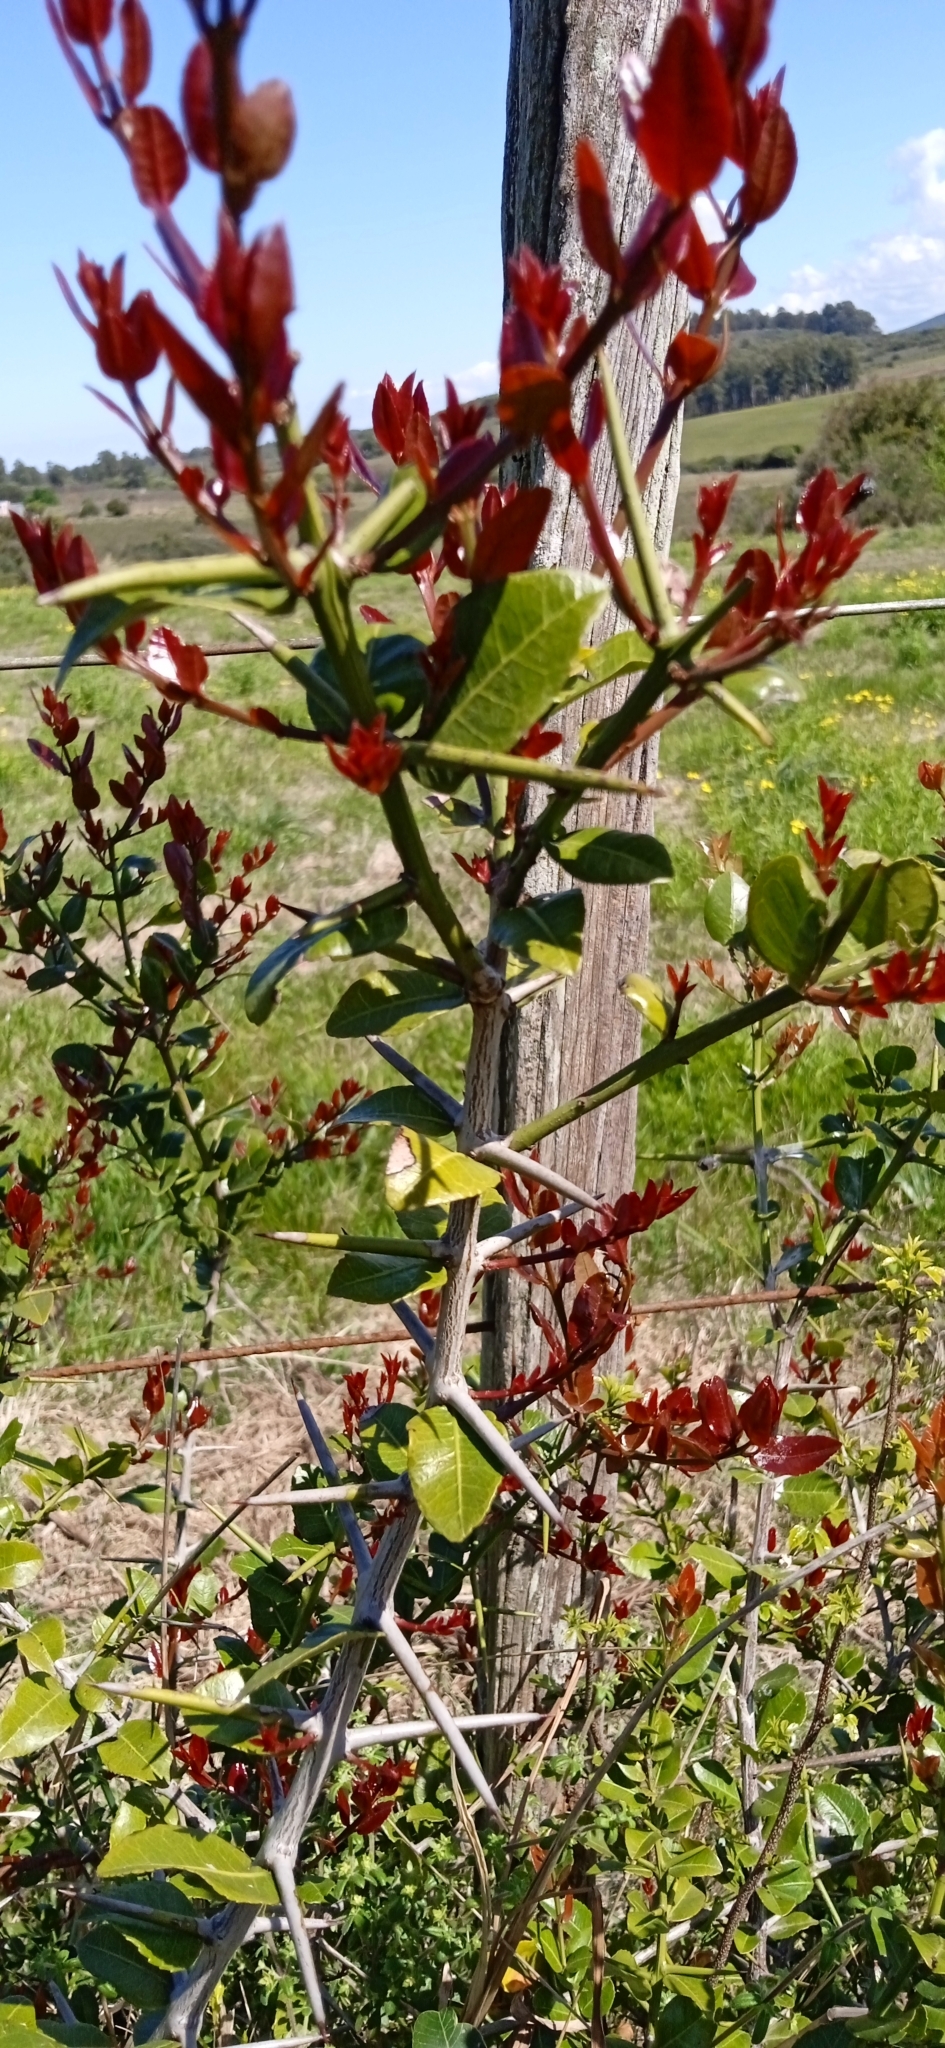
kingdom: Plantae
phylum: Tracheophyta
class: Magnoliopsida
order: Rosales
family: Rhamnaceae
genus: Scutia
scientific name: Scutia buxifolia
